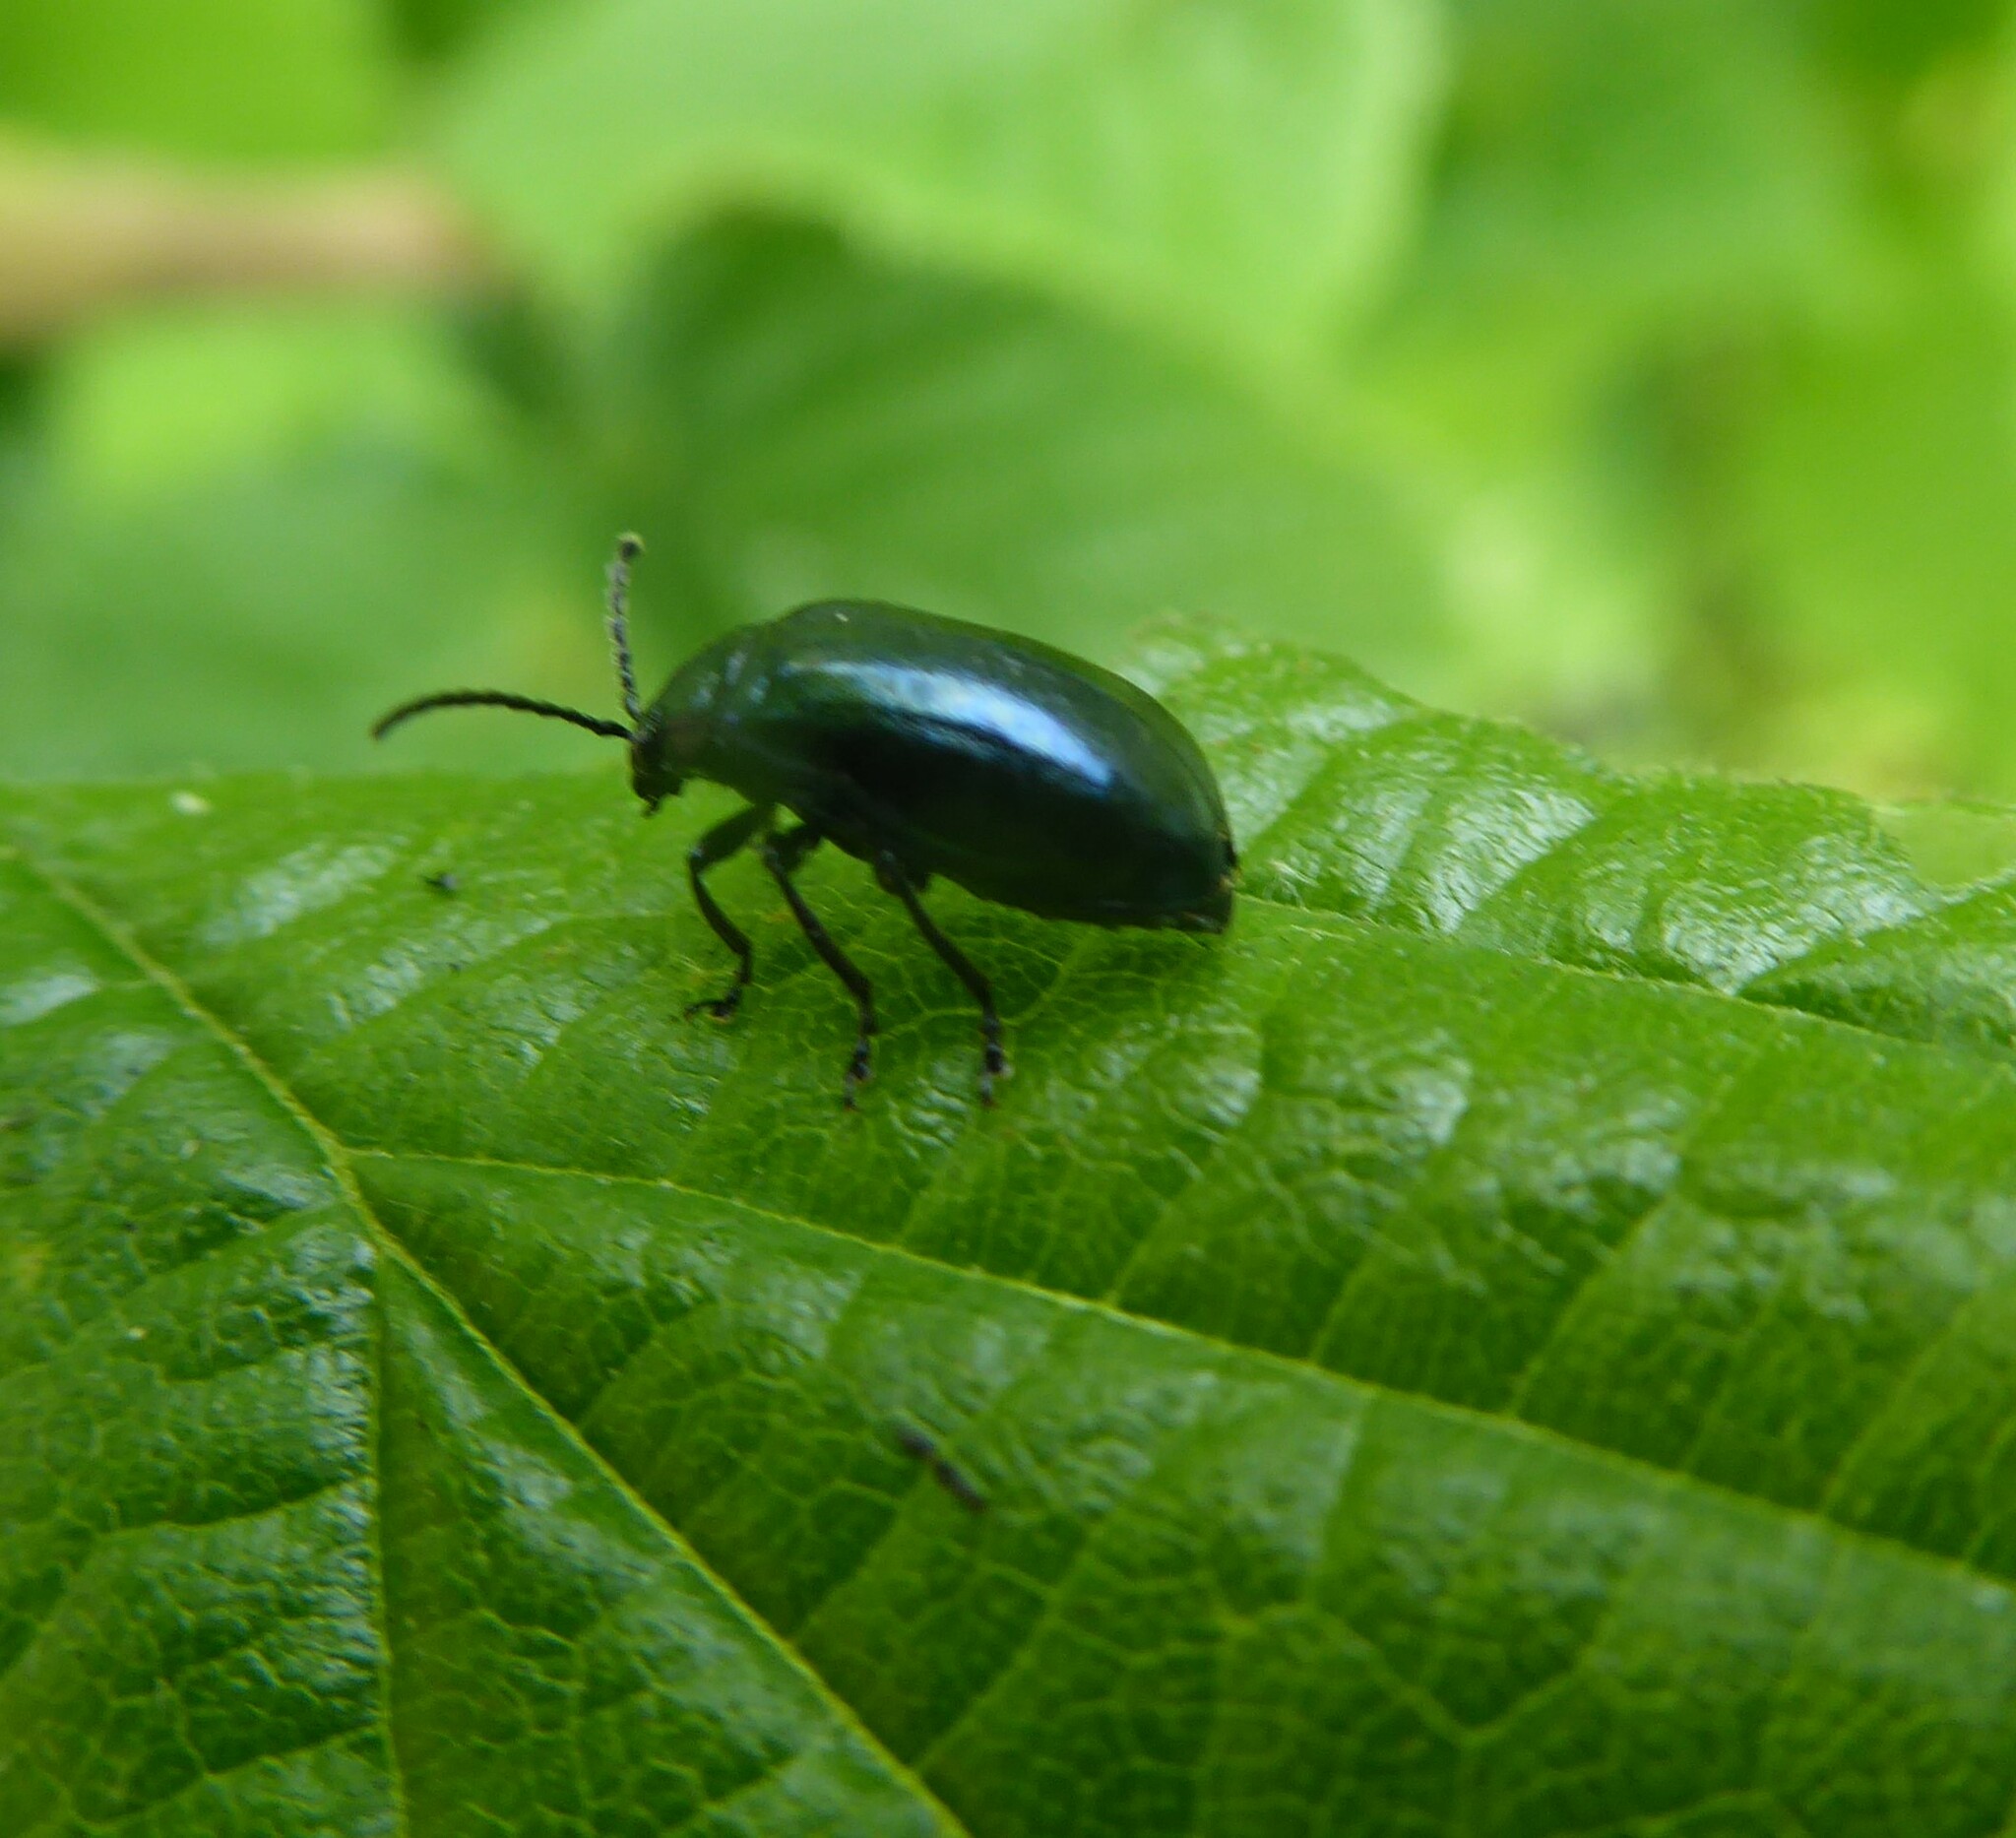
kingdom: Animalia
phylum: Arthropoda
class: Insecta
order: Coleoptera
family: Chrysomelidae
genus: Agelastica
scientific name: Agelastica alni
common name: Alder leaf beetle
